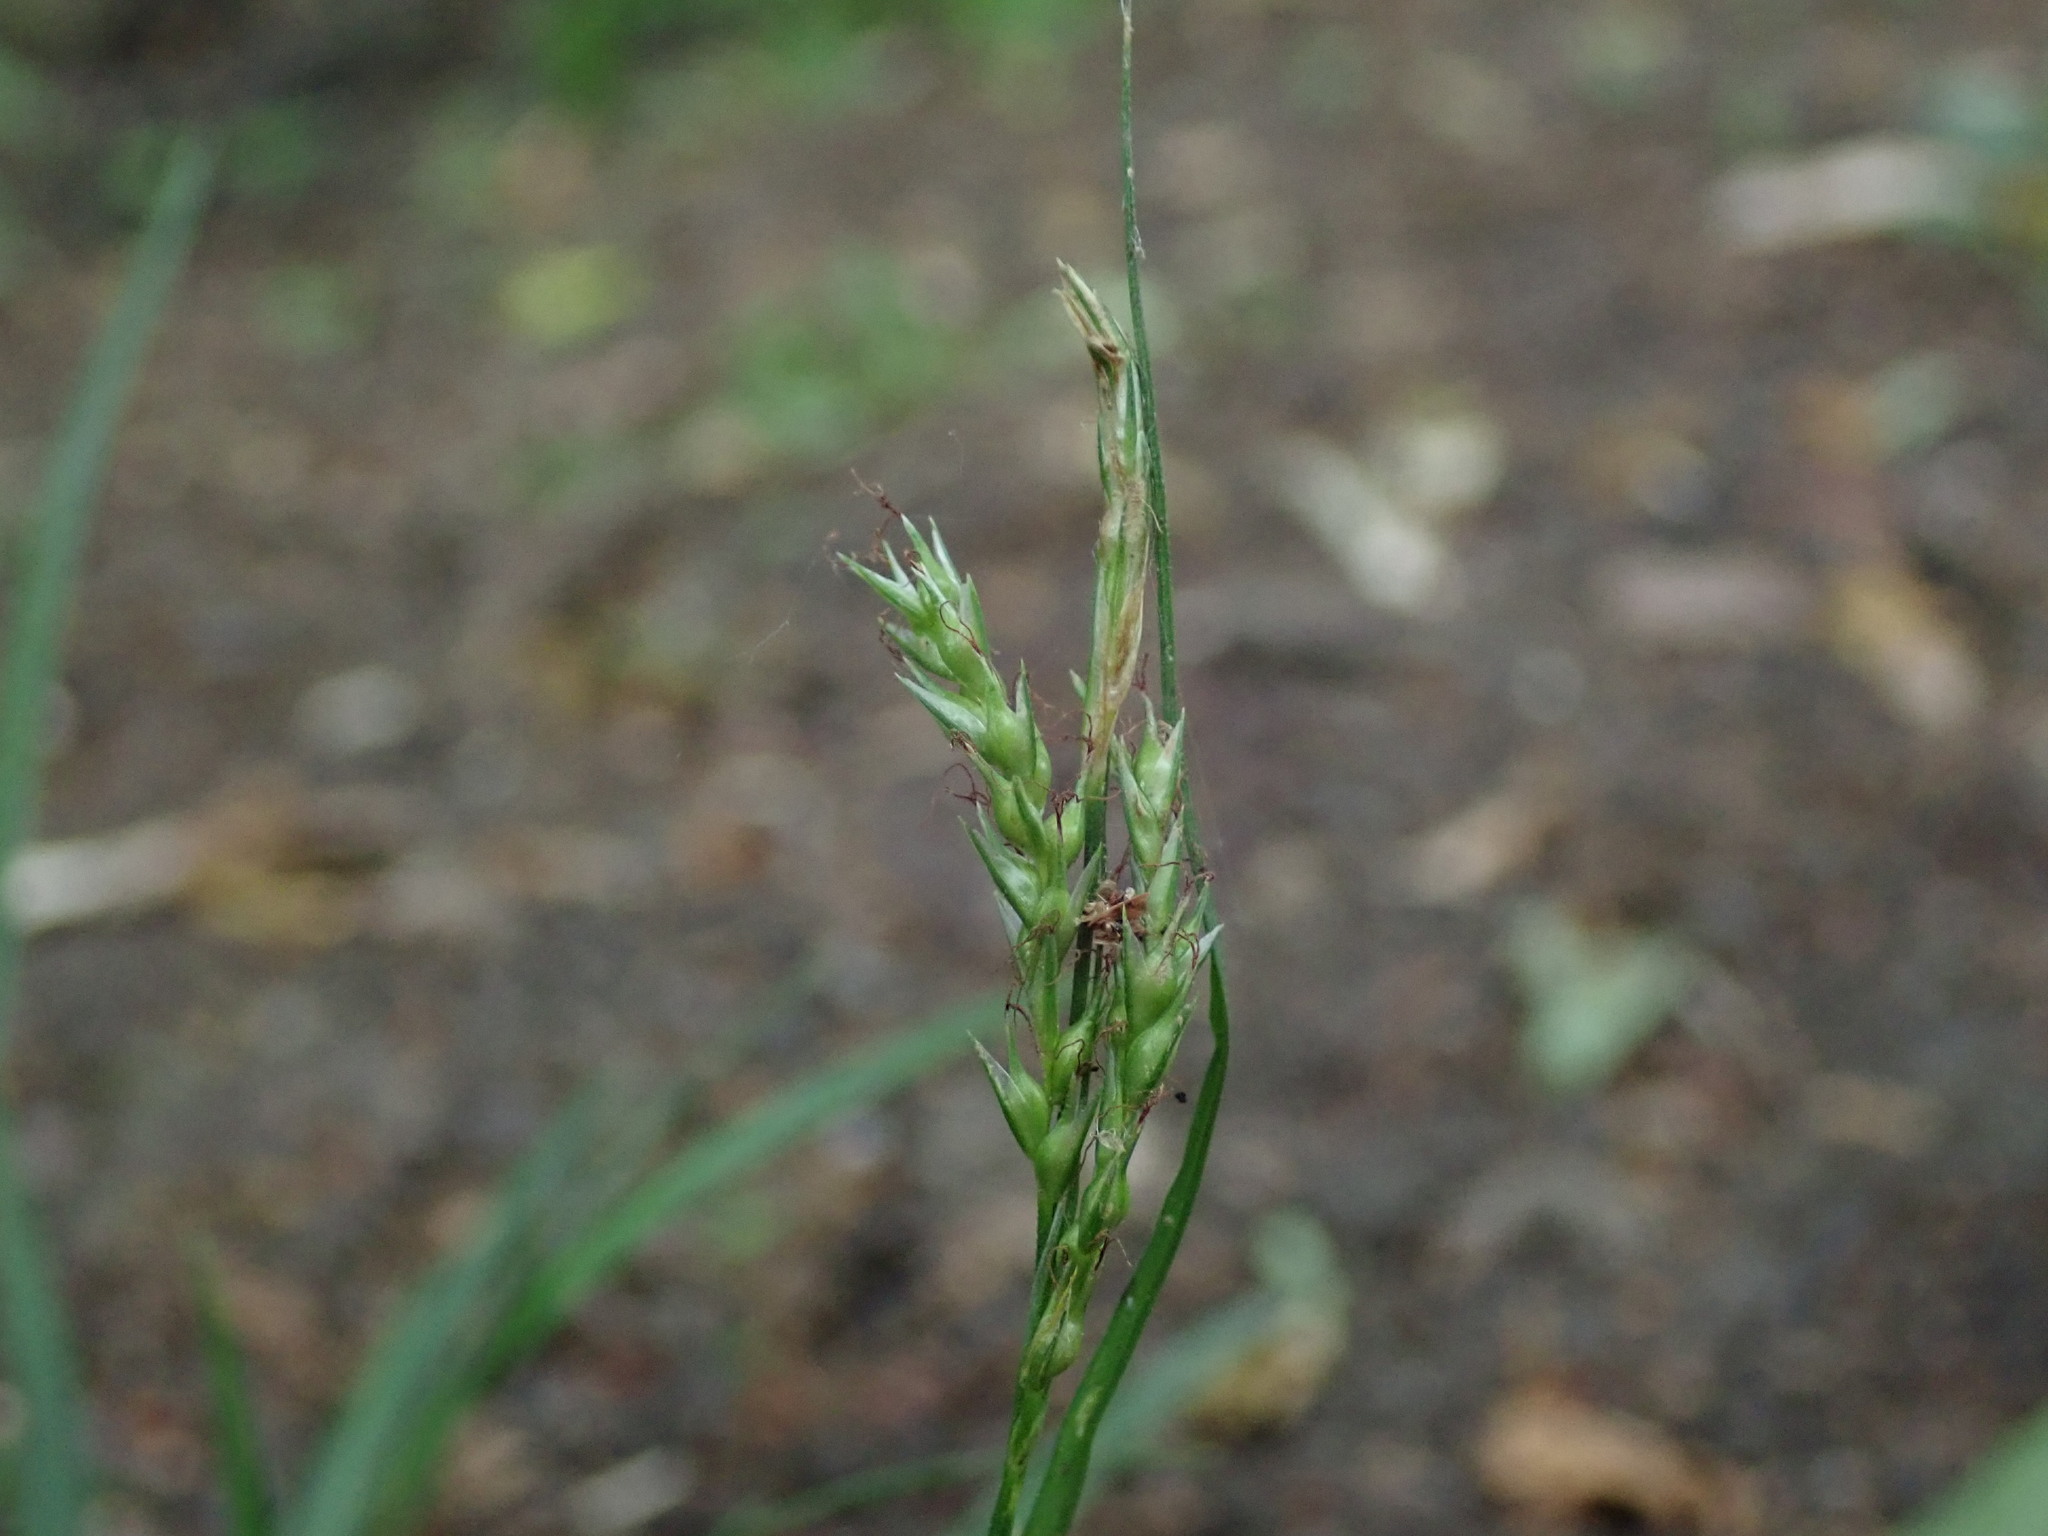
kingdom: Plantae
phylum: Tracheophyta
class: Liliopsida
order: Poales
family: Cyperaceae
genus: Carex
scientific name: Carex sylvatica
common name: Wood-sedge
